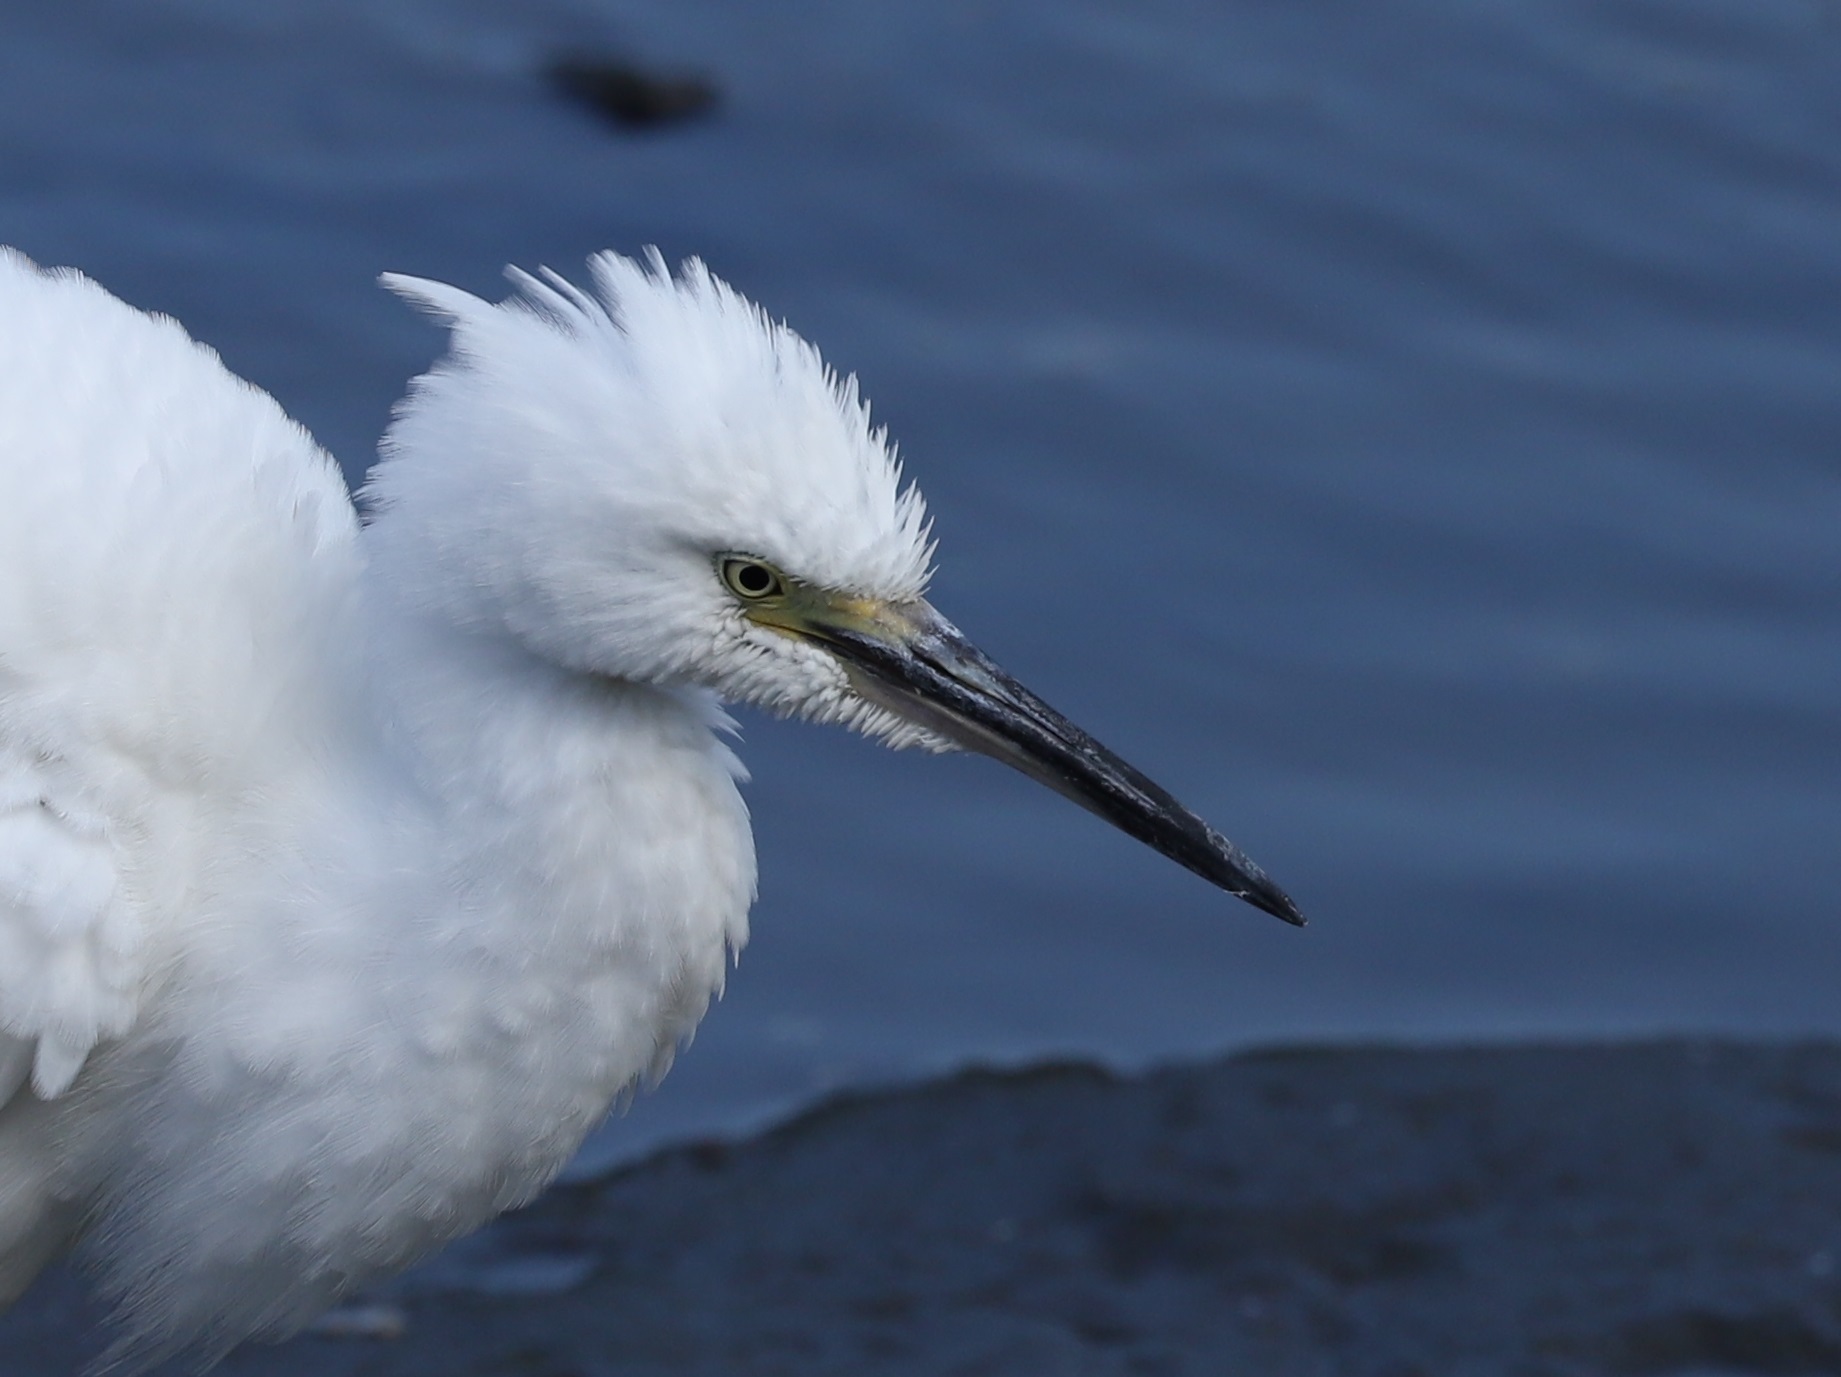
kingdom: Animalia
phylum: Chordata
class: Aves
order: Pelecaniformes
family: Ardeidae
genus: Egretta
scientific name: Egretta garzetta
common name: Little egret
